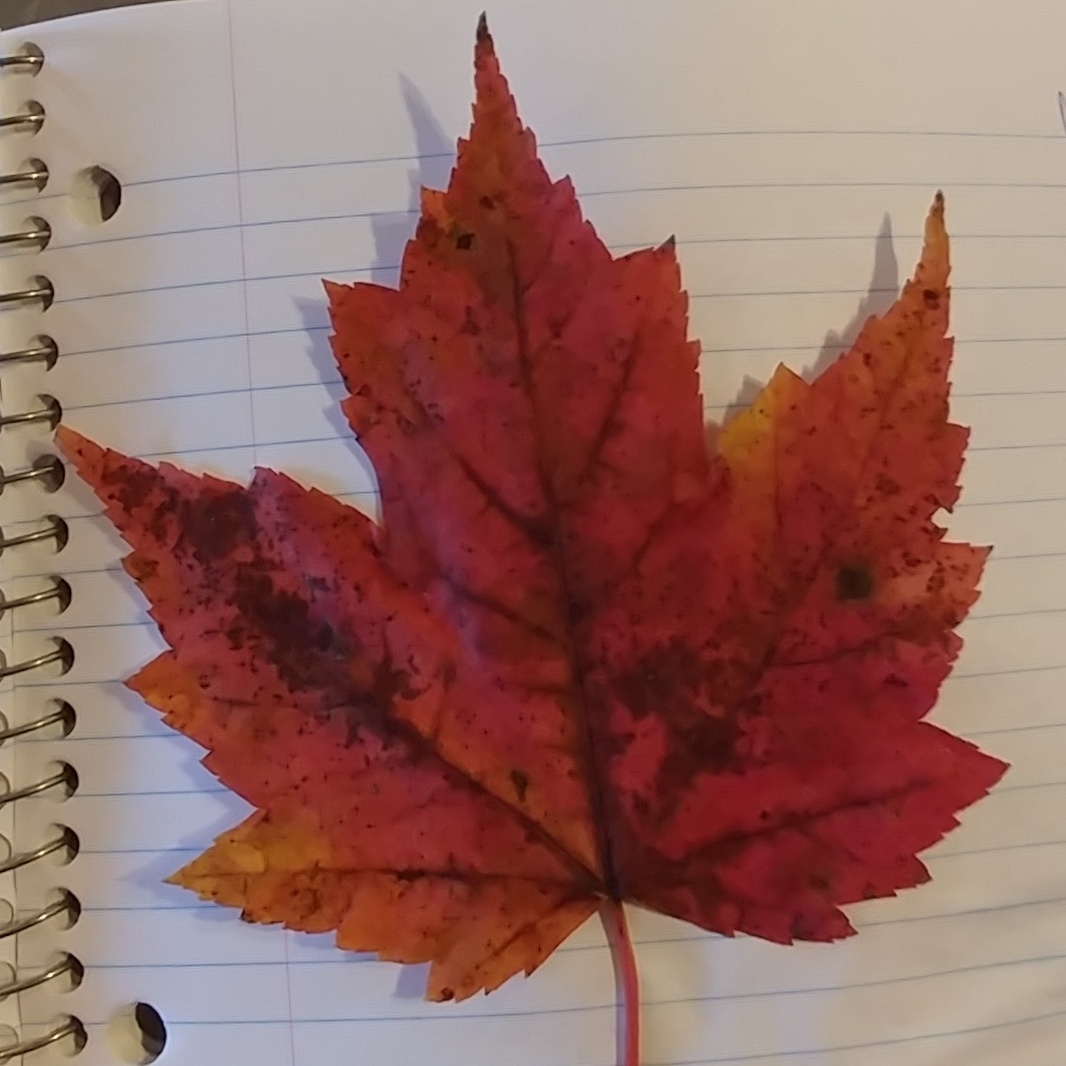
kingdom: Plantae
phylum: Tracheophyta
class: Magnoliopsida
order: Sapindales
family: Sapindaceae
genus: Acer
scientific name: Acer rubrum
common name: Red maple
